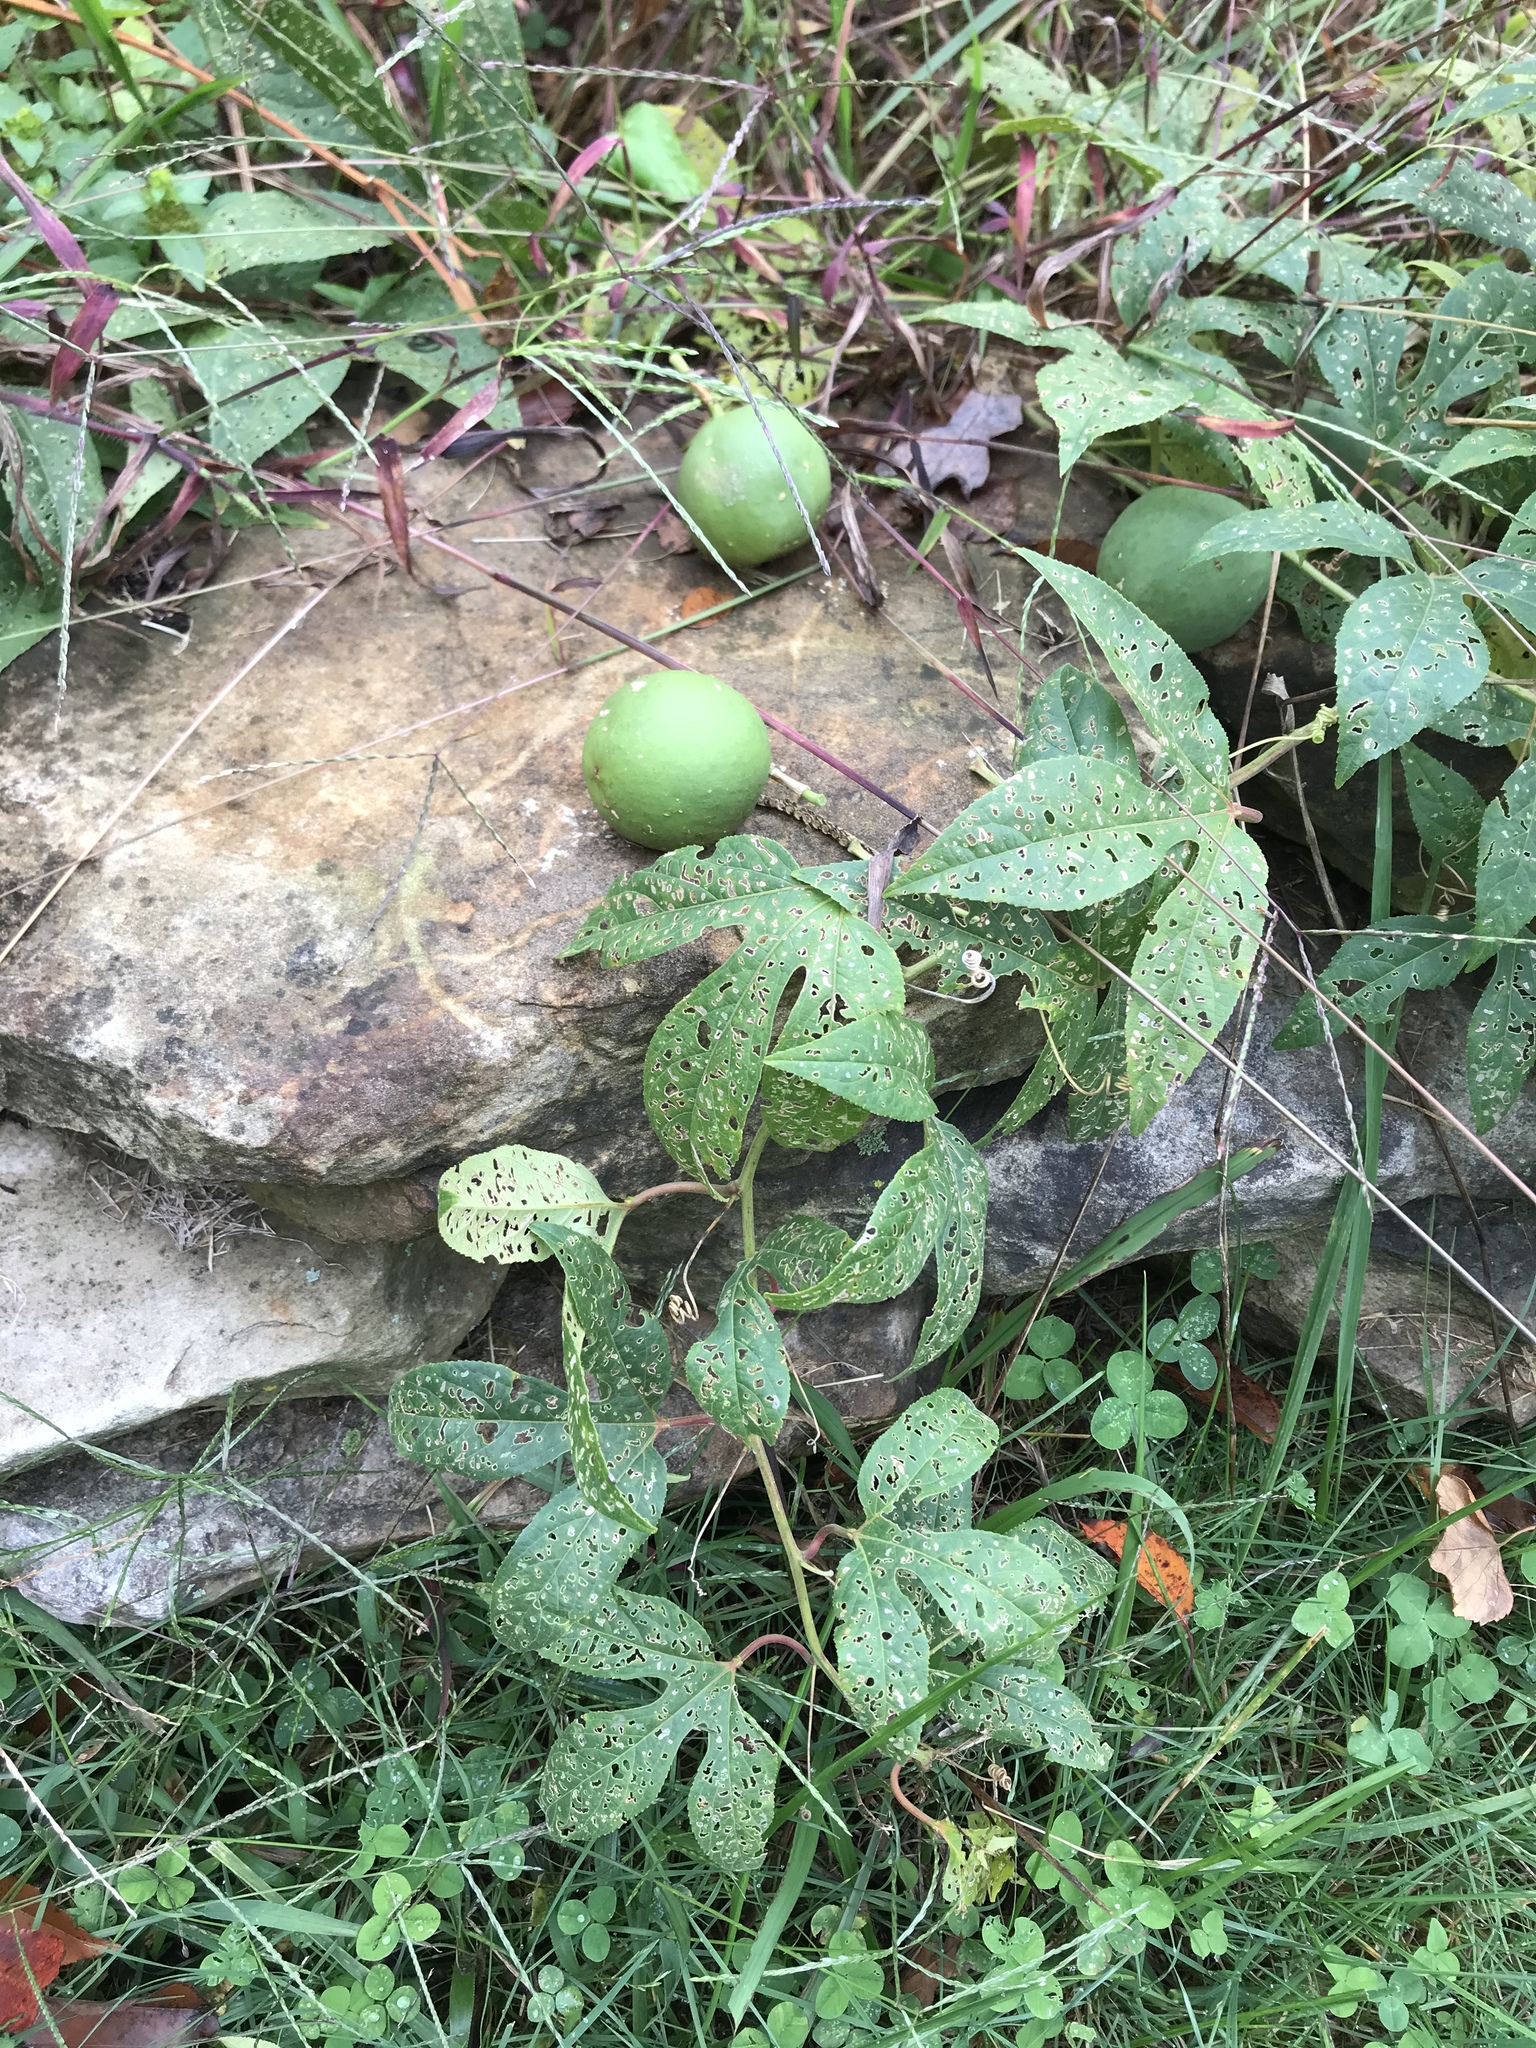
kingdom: Plantae
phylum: Tracheophyta
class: Magnoliopsida
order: Malpighiales
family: Passifloraceae
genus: Passiflora
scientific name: Passiflora incarnata
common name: Apricot-vine
